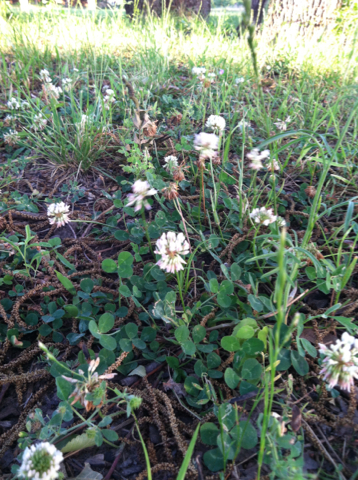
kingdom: Plantae
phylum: Tracheophyta
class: Magnoliopsida
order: Fabales
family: Fabaceae
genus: Trifolium
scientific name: Trifolium repens
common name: White clover
